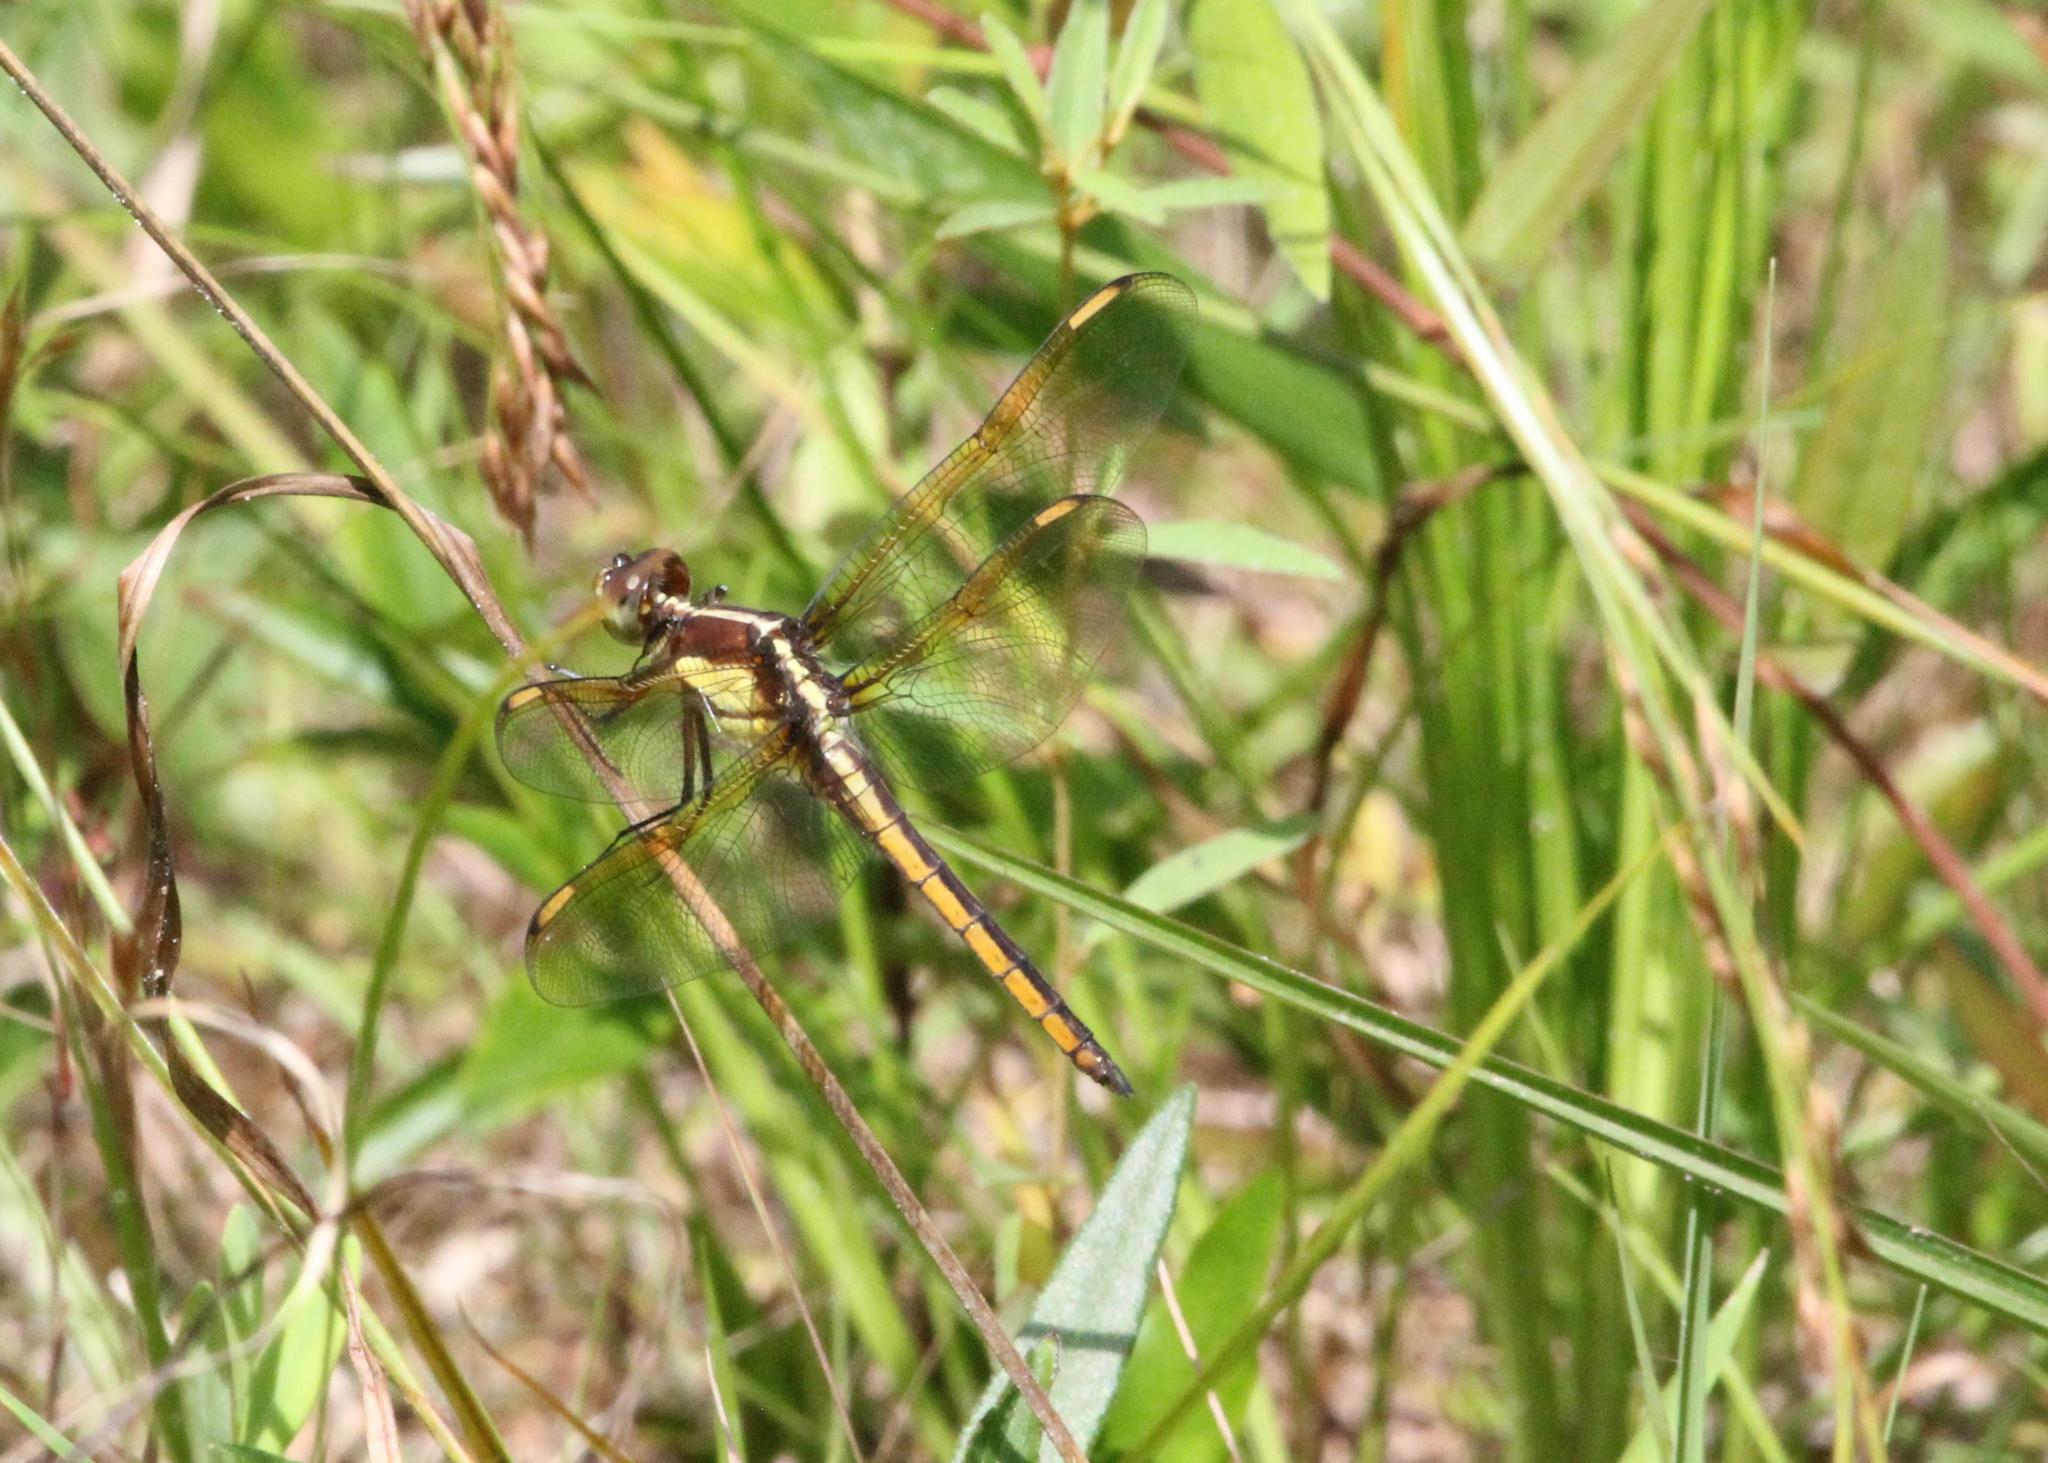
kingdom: Animalia
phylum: Arthropoda
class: Insecta
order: Odonata
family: Libellulidae
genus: Libellula
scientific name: Libellula flavida
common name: Yellow-sided skimmer
